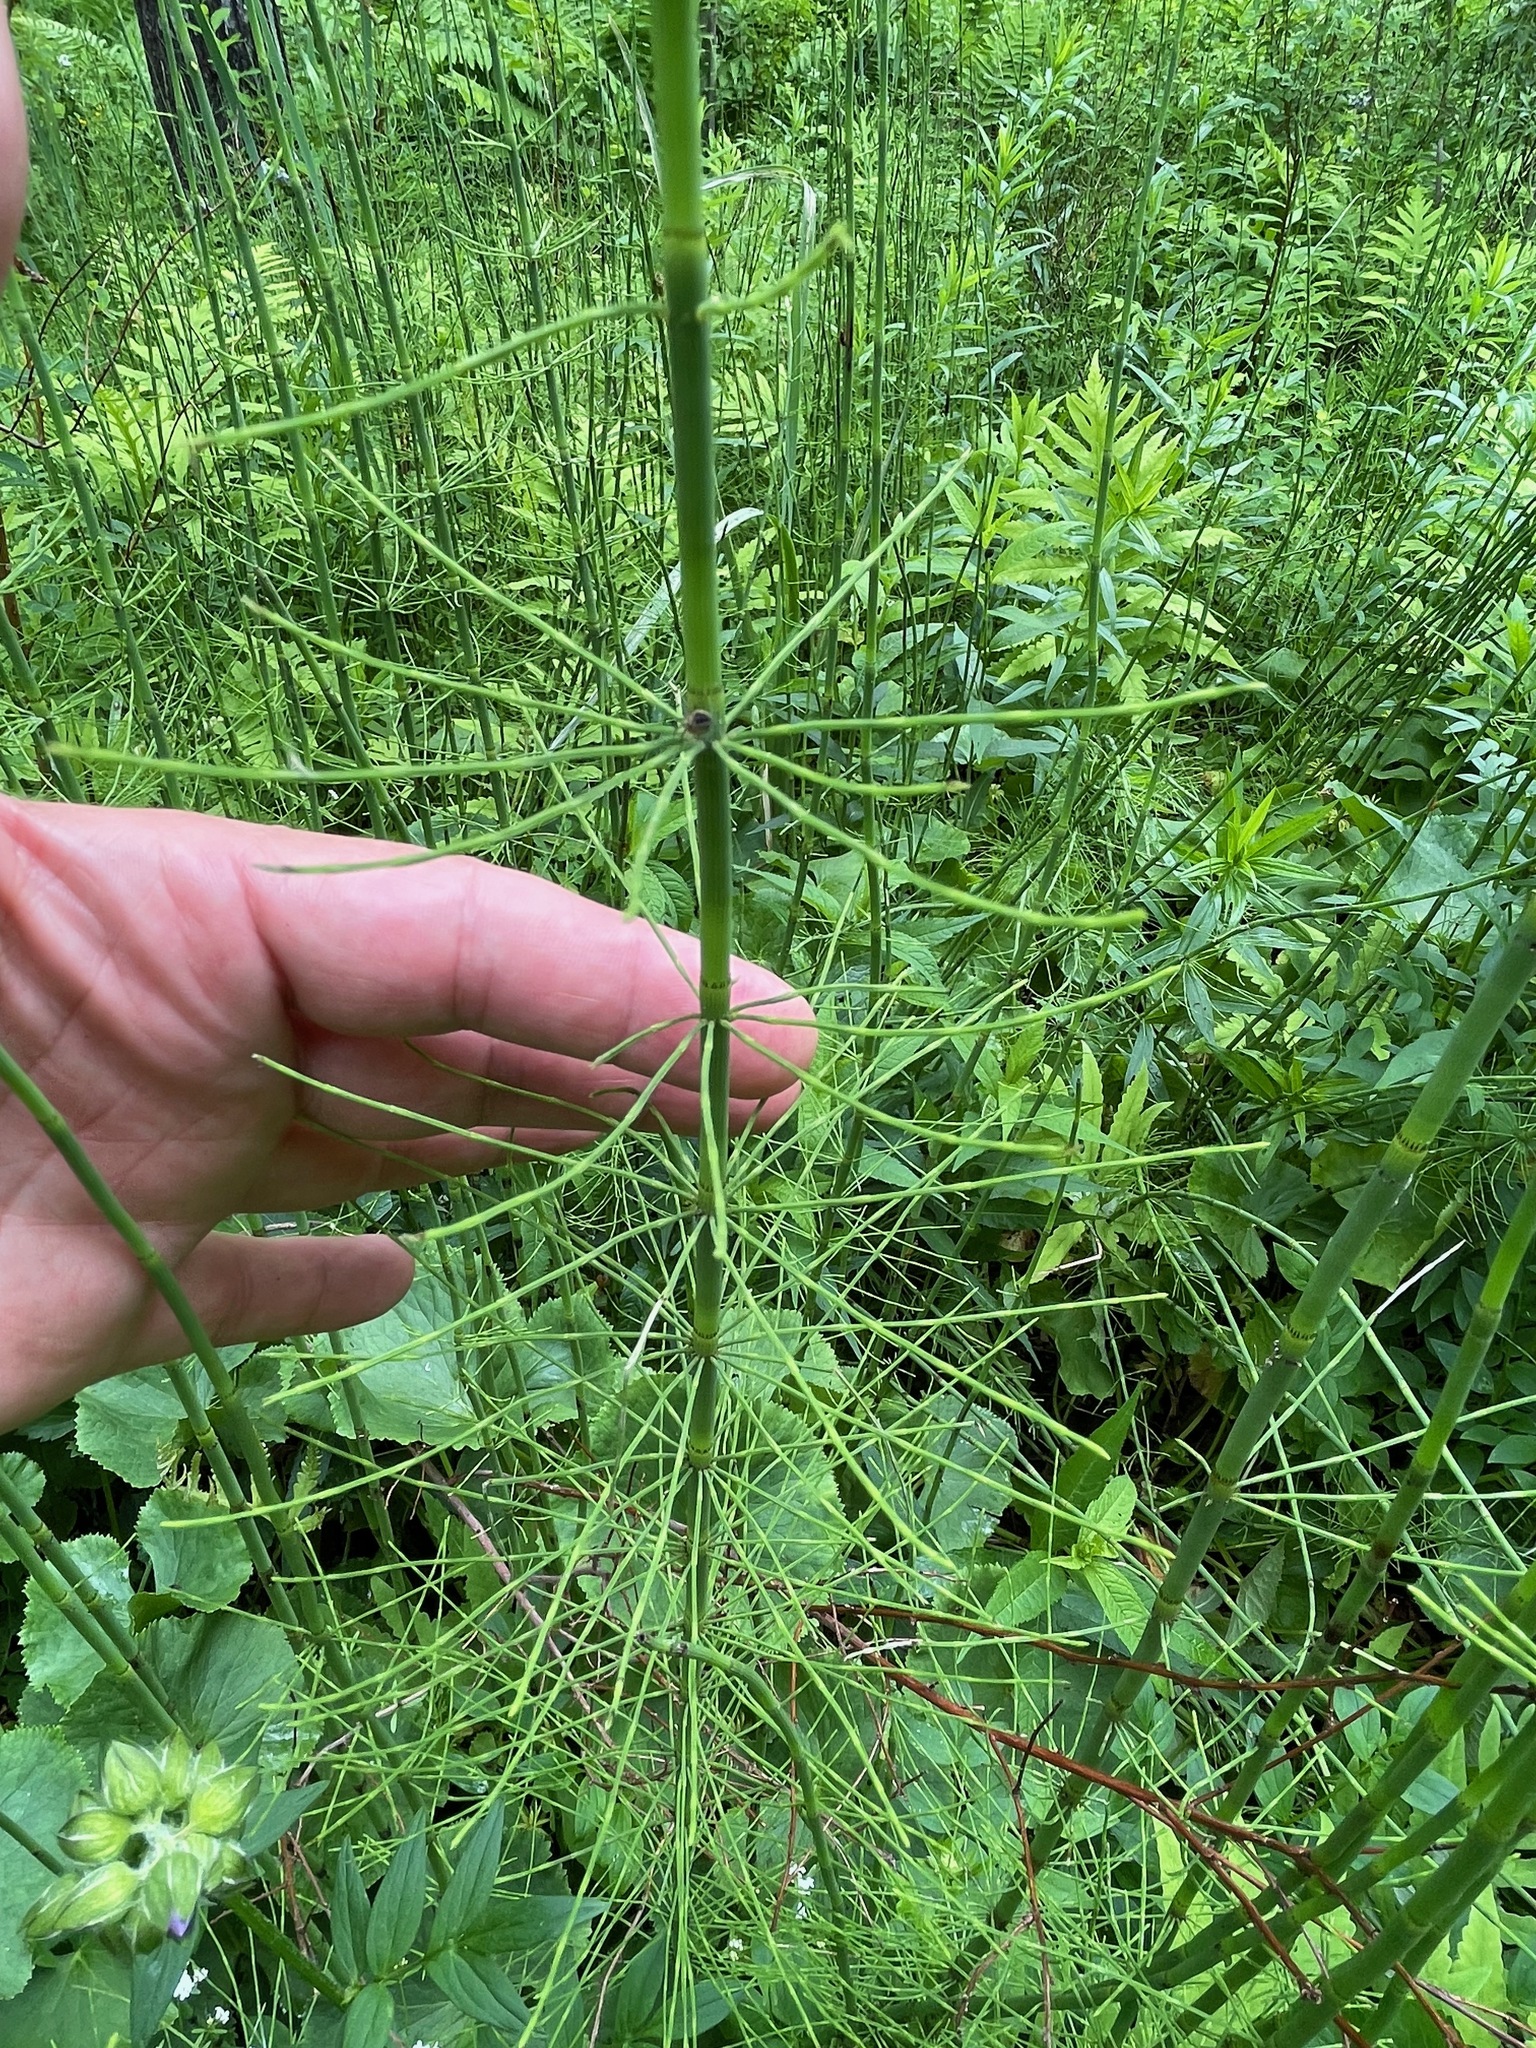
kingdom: Plantae
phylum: Tracheophyta
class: Polypodiopsida
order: Equisetales
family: Equisetaceae
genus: Equisetum
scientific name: Equisetum fluviatile
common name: Water horsetail
